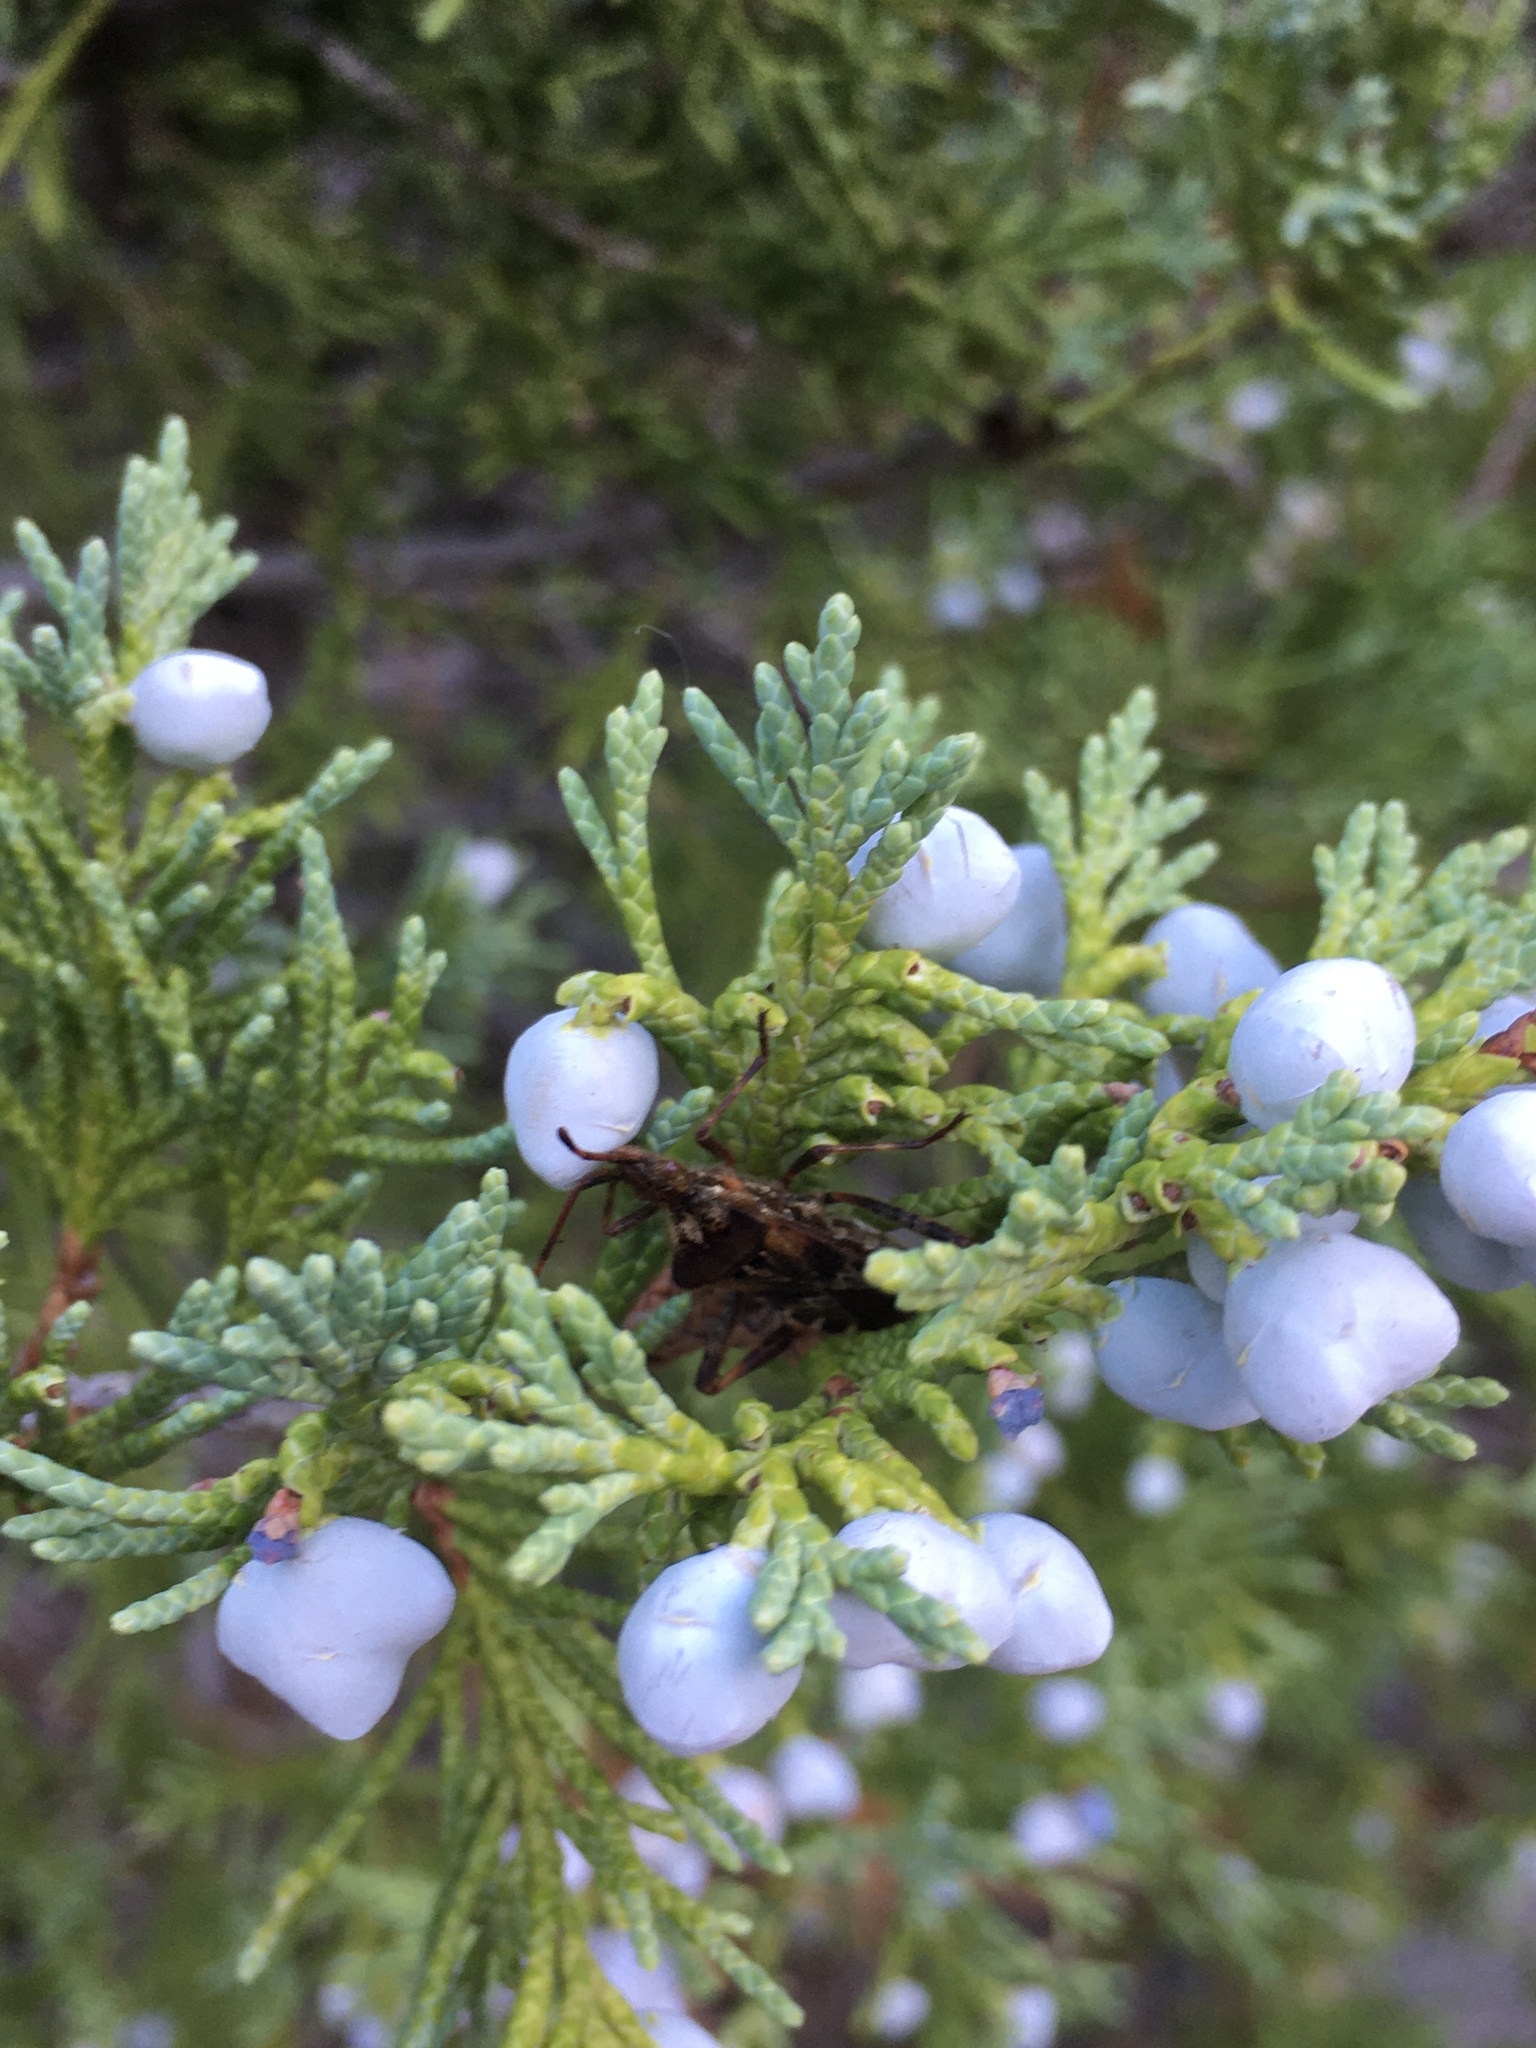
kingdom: Animalia
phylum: Arthropoda
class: Insecta
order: Hemiptera
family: Coreidae
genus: Leptoglossus
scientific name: Leptoglossus occidentalis
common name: Western conifer-seed bug
